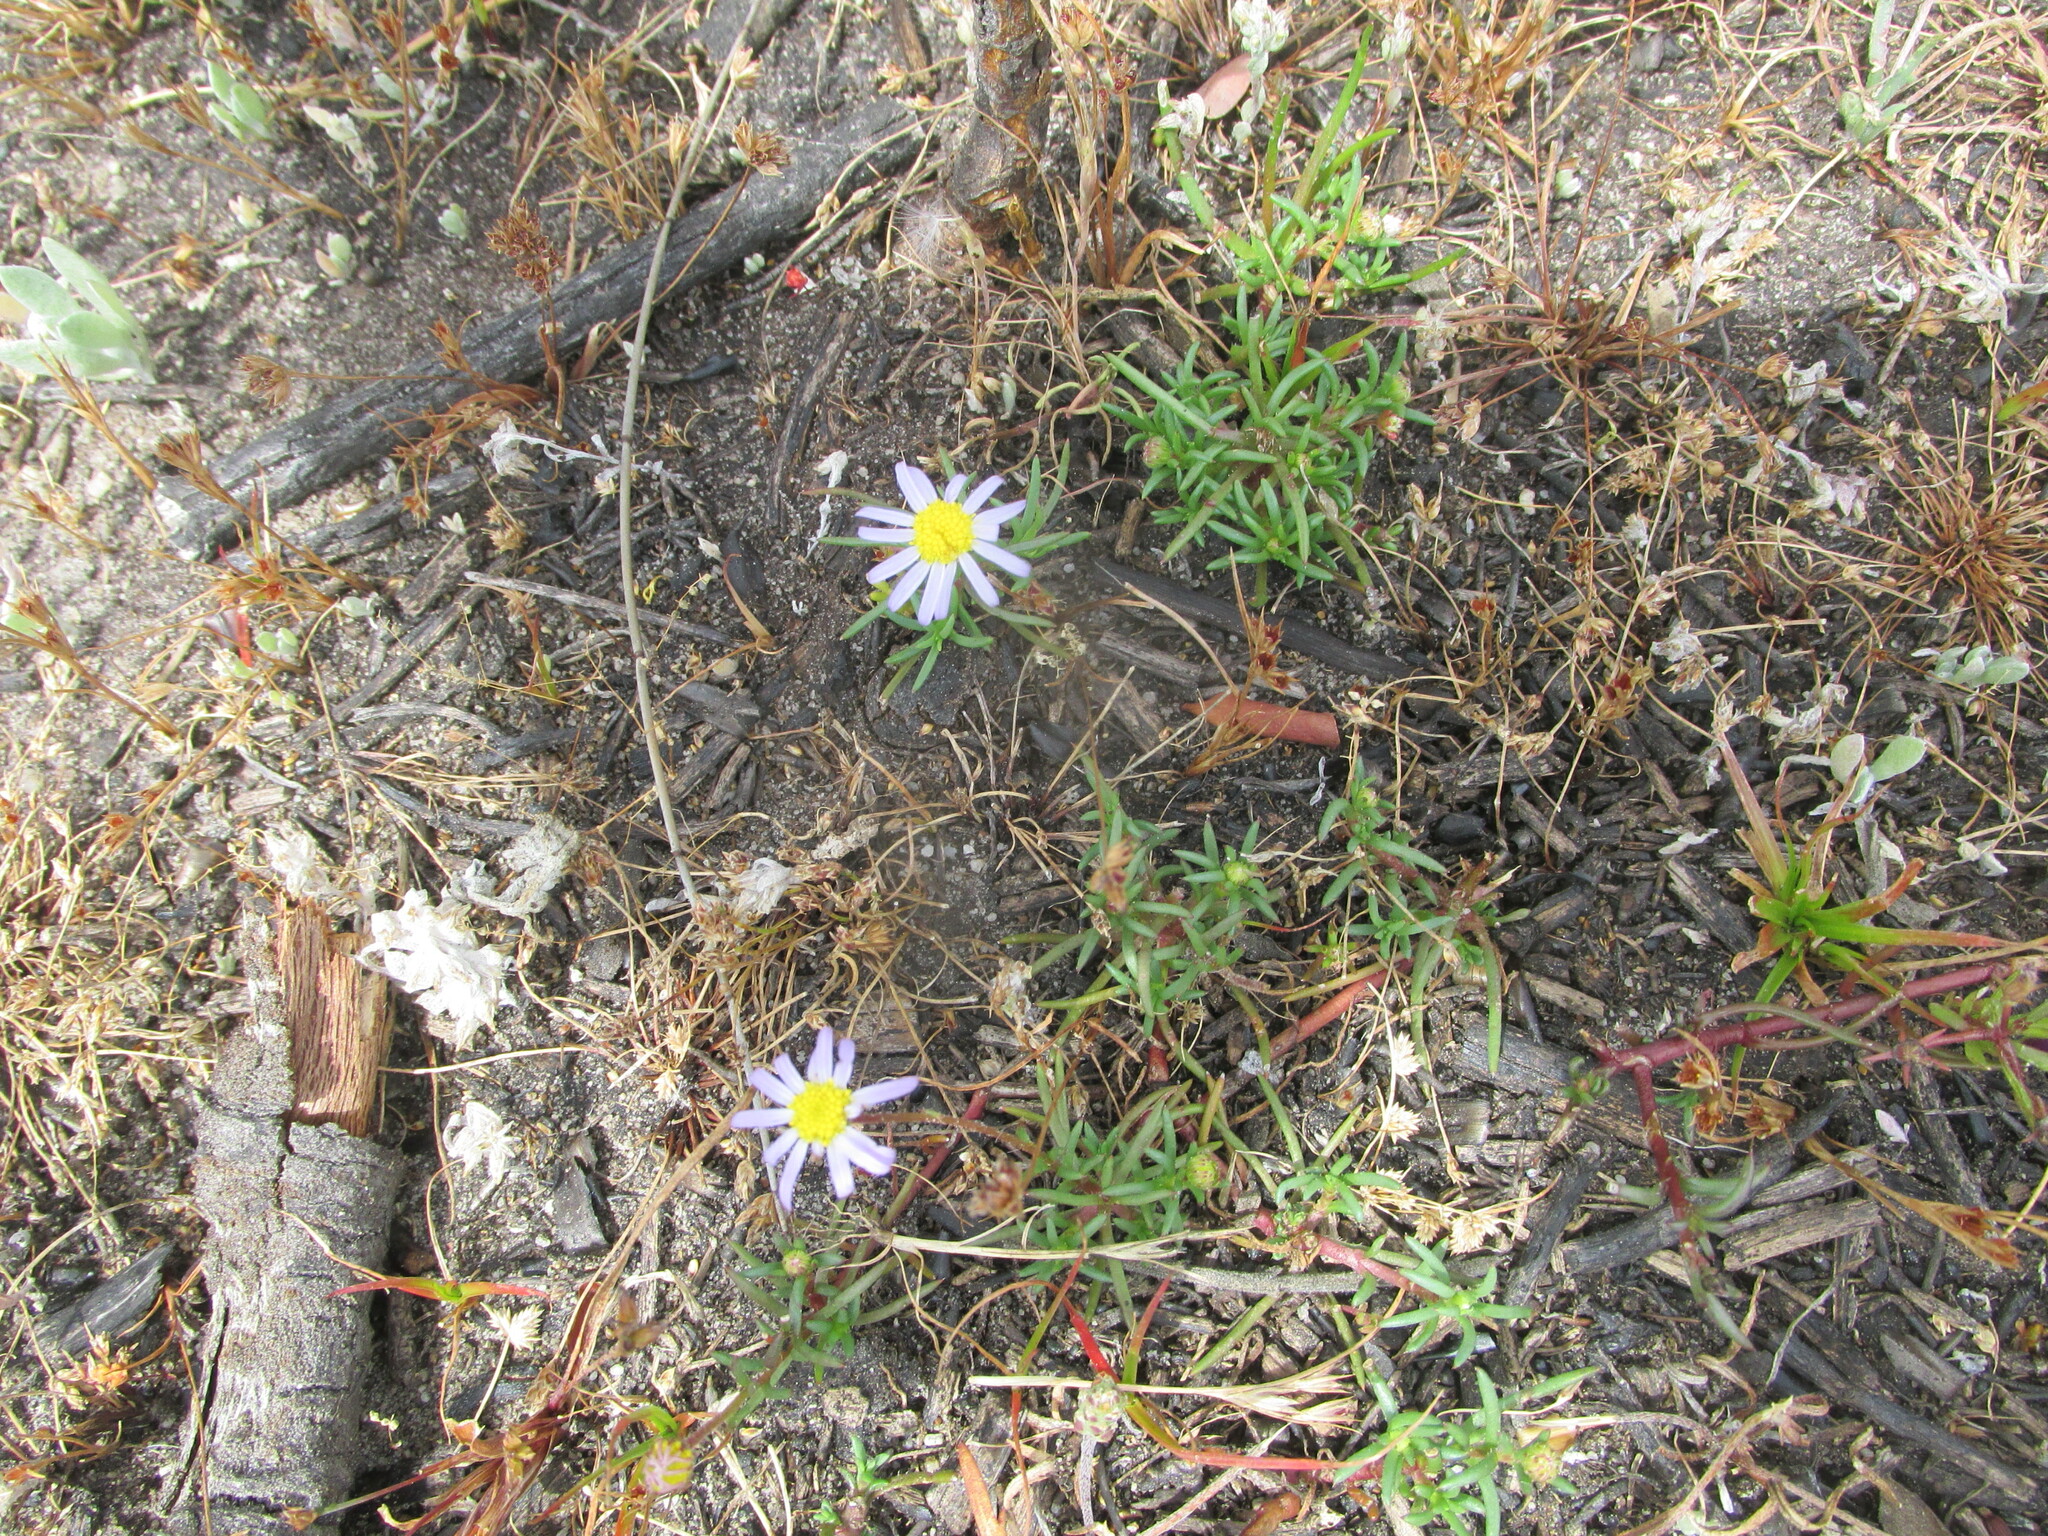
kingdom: Plantae
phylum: Tracheophyta
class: Magnoliopsida
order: Asterales
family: Asteraceae
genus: Felicia
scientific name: Felicia tenella
